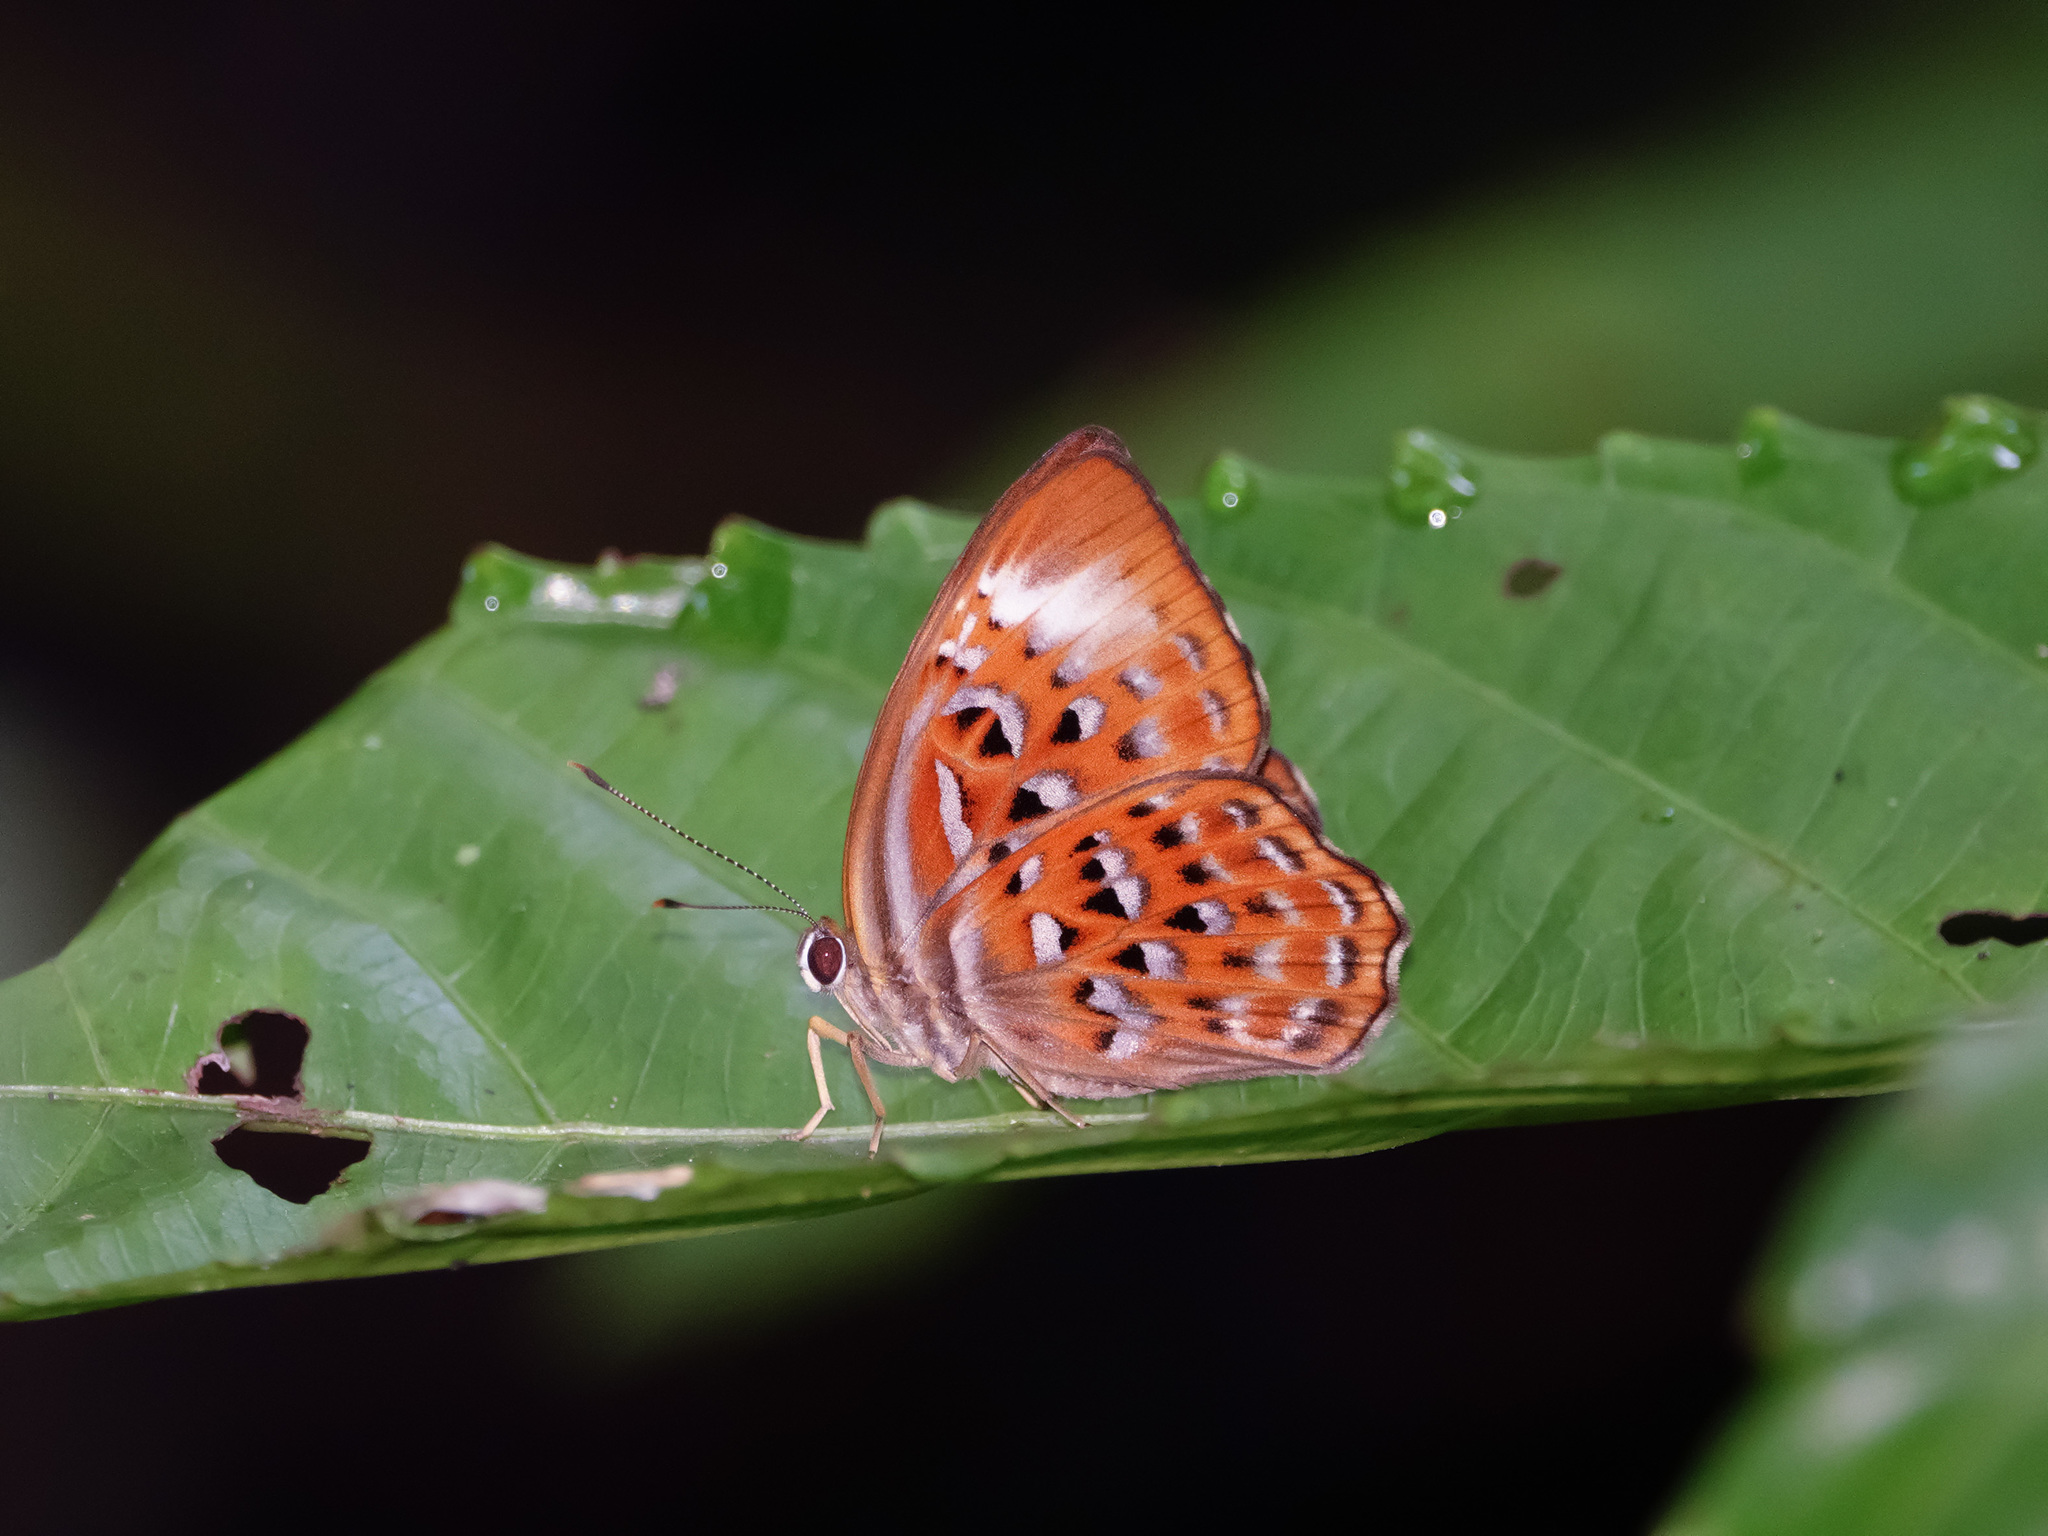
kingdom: Animalia
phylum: Arthropoda
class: Insecta
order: Lepidoptera
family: Erebidae
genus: Dysschema
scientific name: Dysschema
